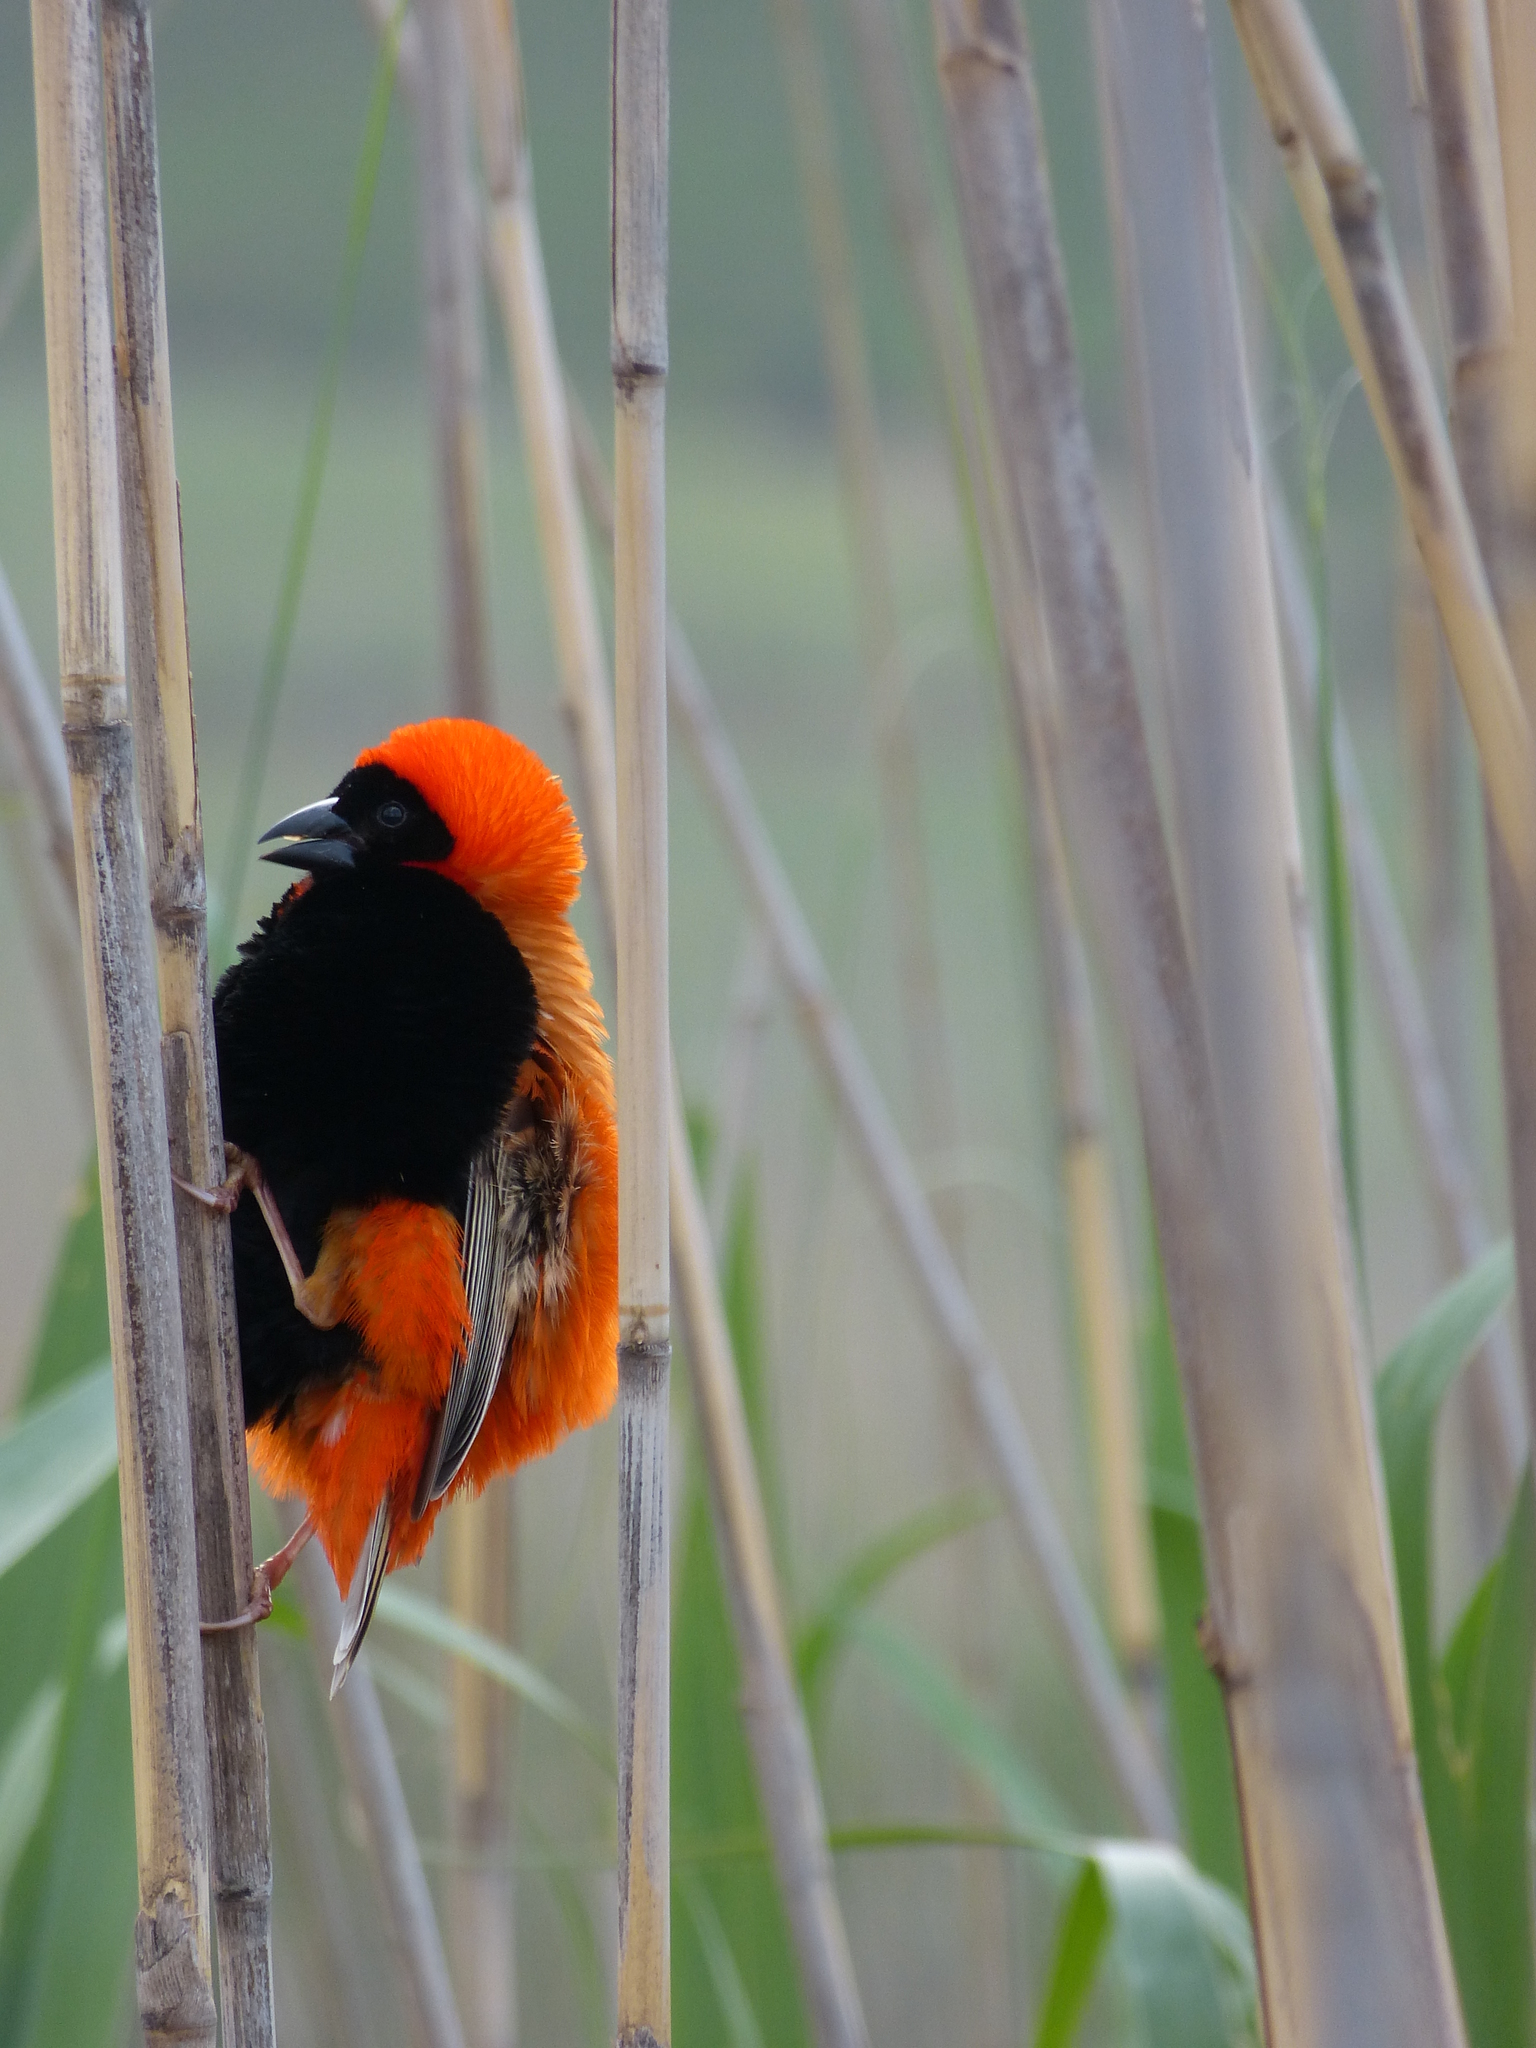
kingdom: Animalia
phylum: Chordata
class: Aves
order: Passeriformes
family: Ploceidae
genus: Euplectes
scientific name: Euplectes orix
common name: Southern red bishop
